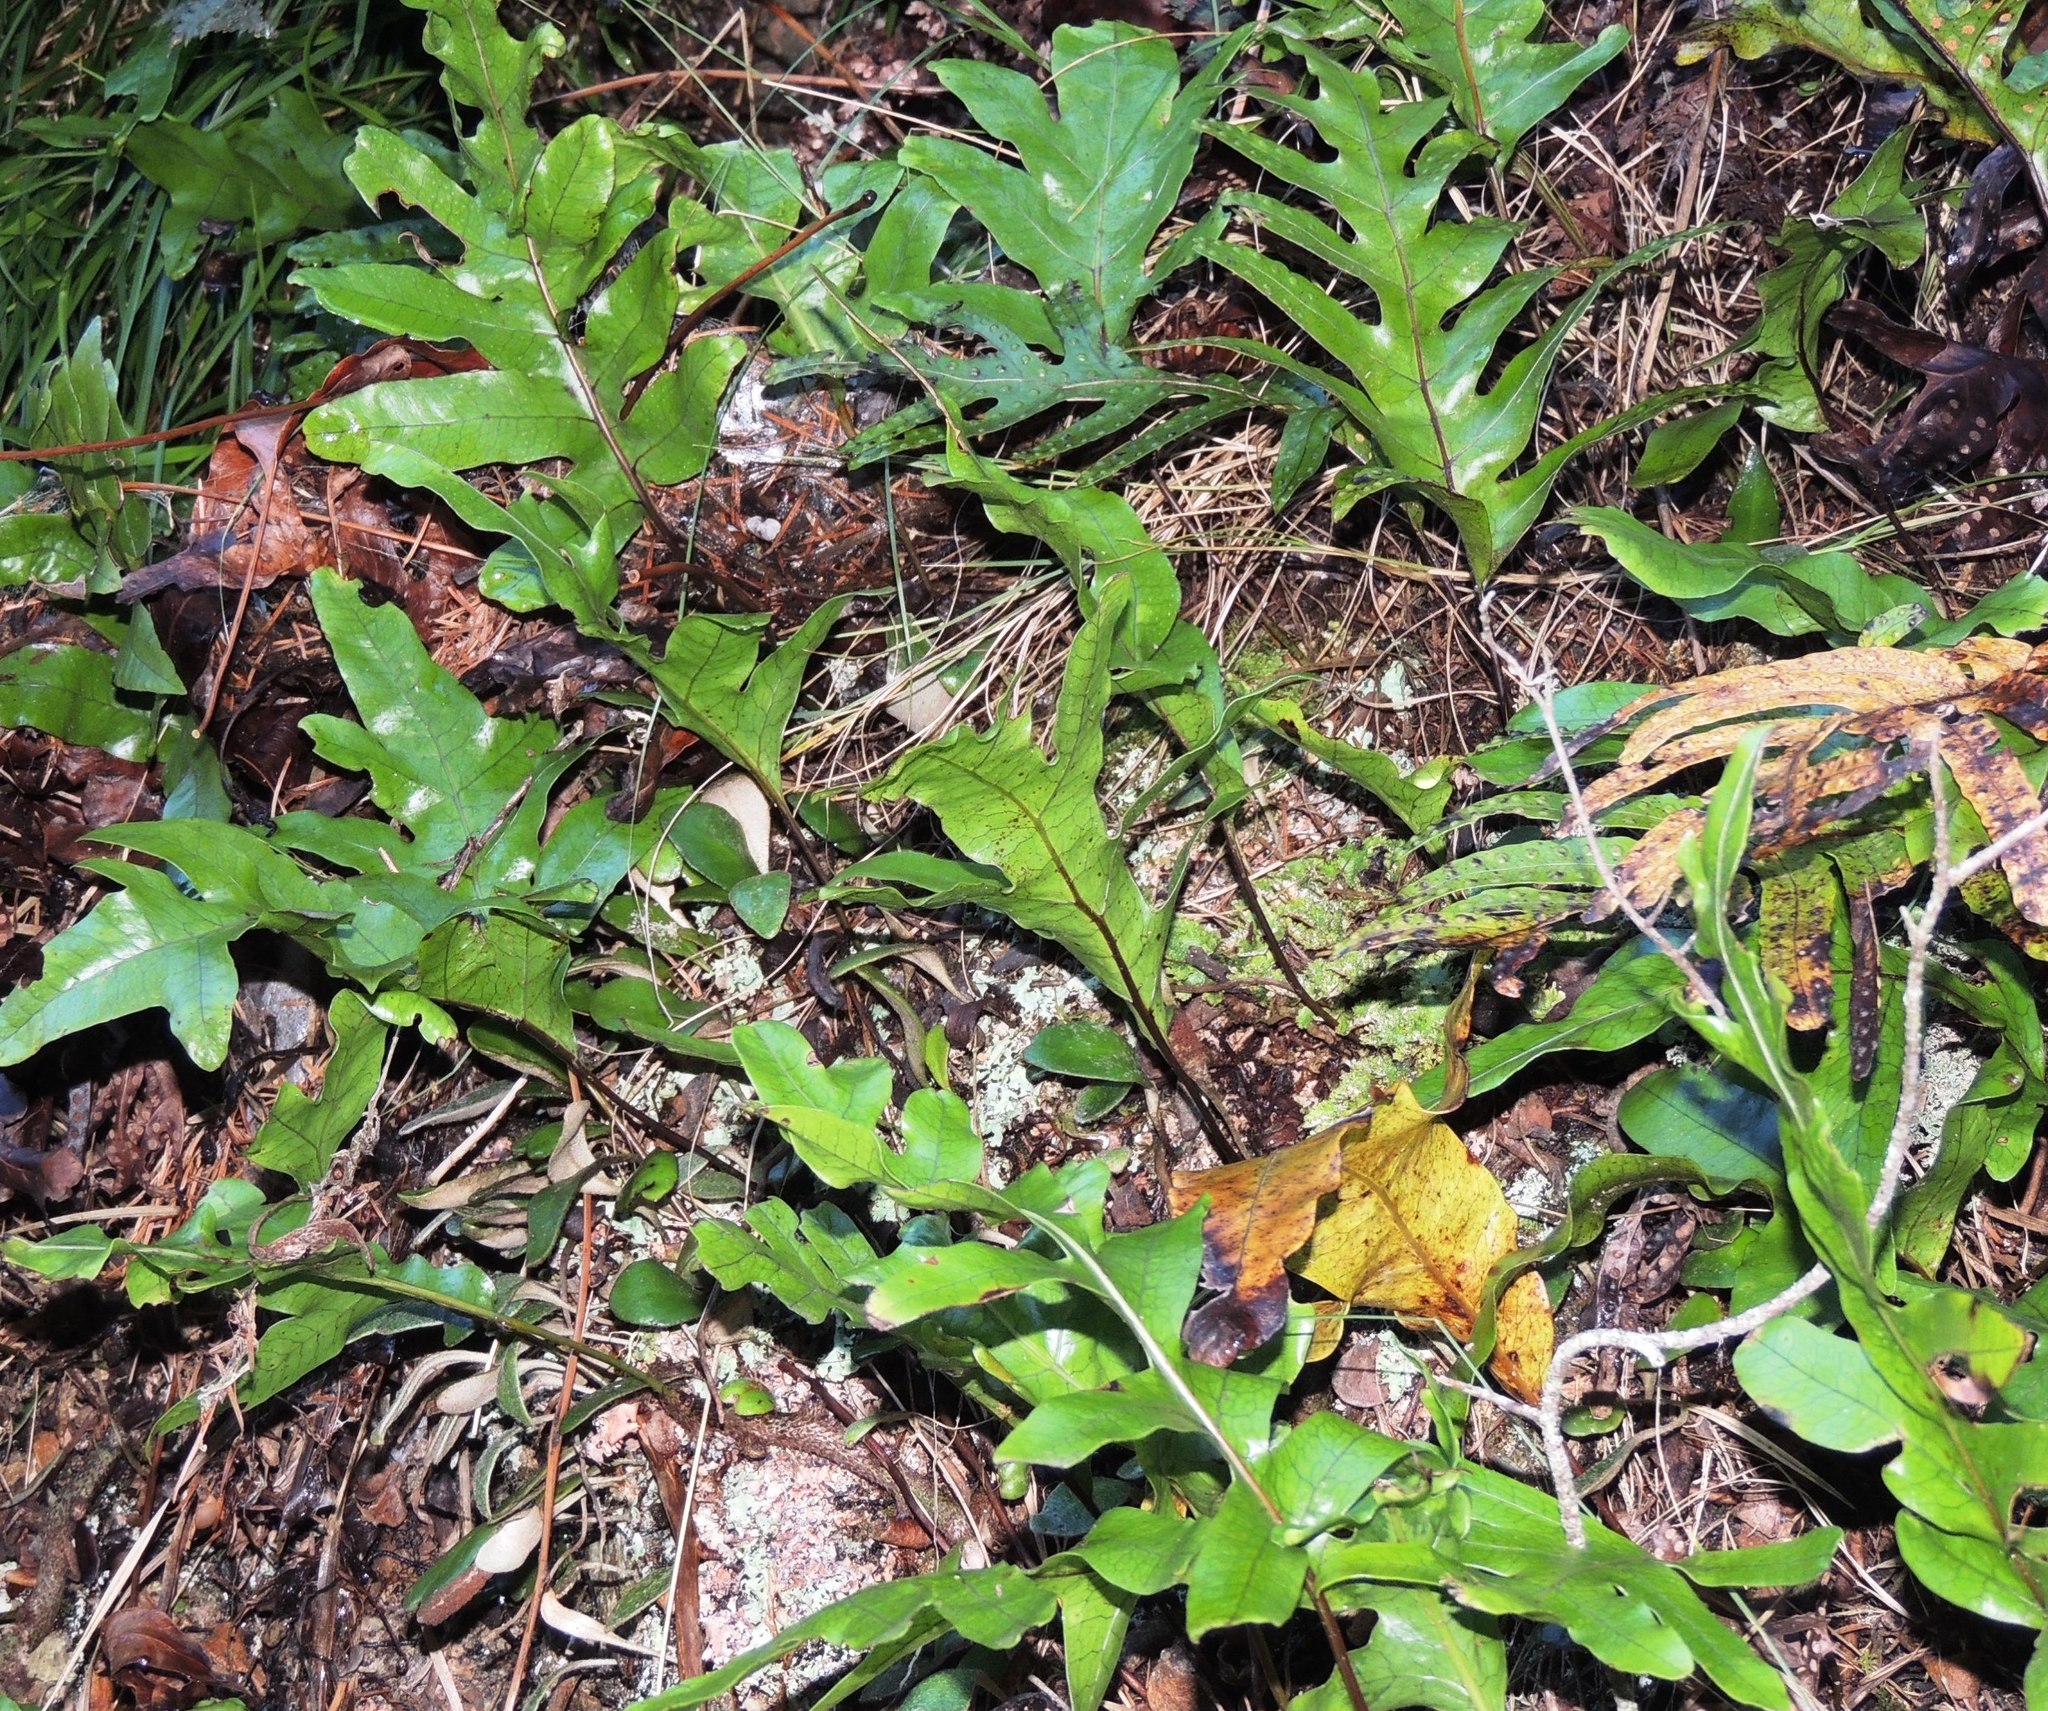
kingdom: Plantae
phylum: Tracheophyta
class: Polypodiopsida
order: Polypodiales
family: Polypodiaceae
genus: Lecanopteris
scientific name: Lecanopteris pustulata
